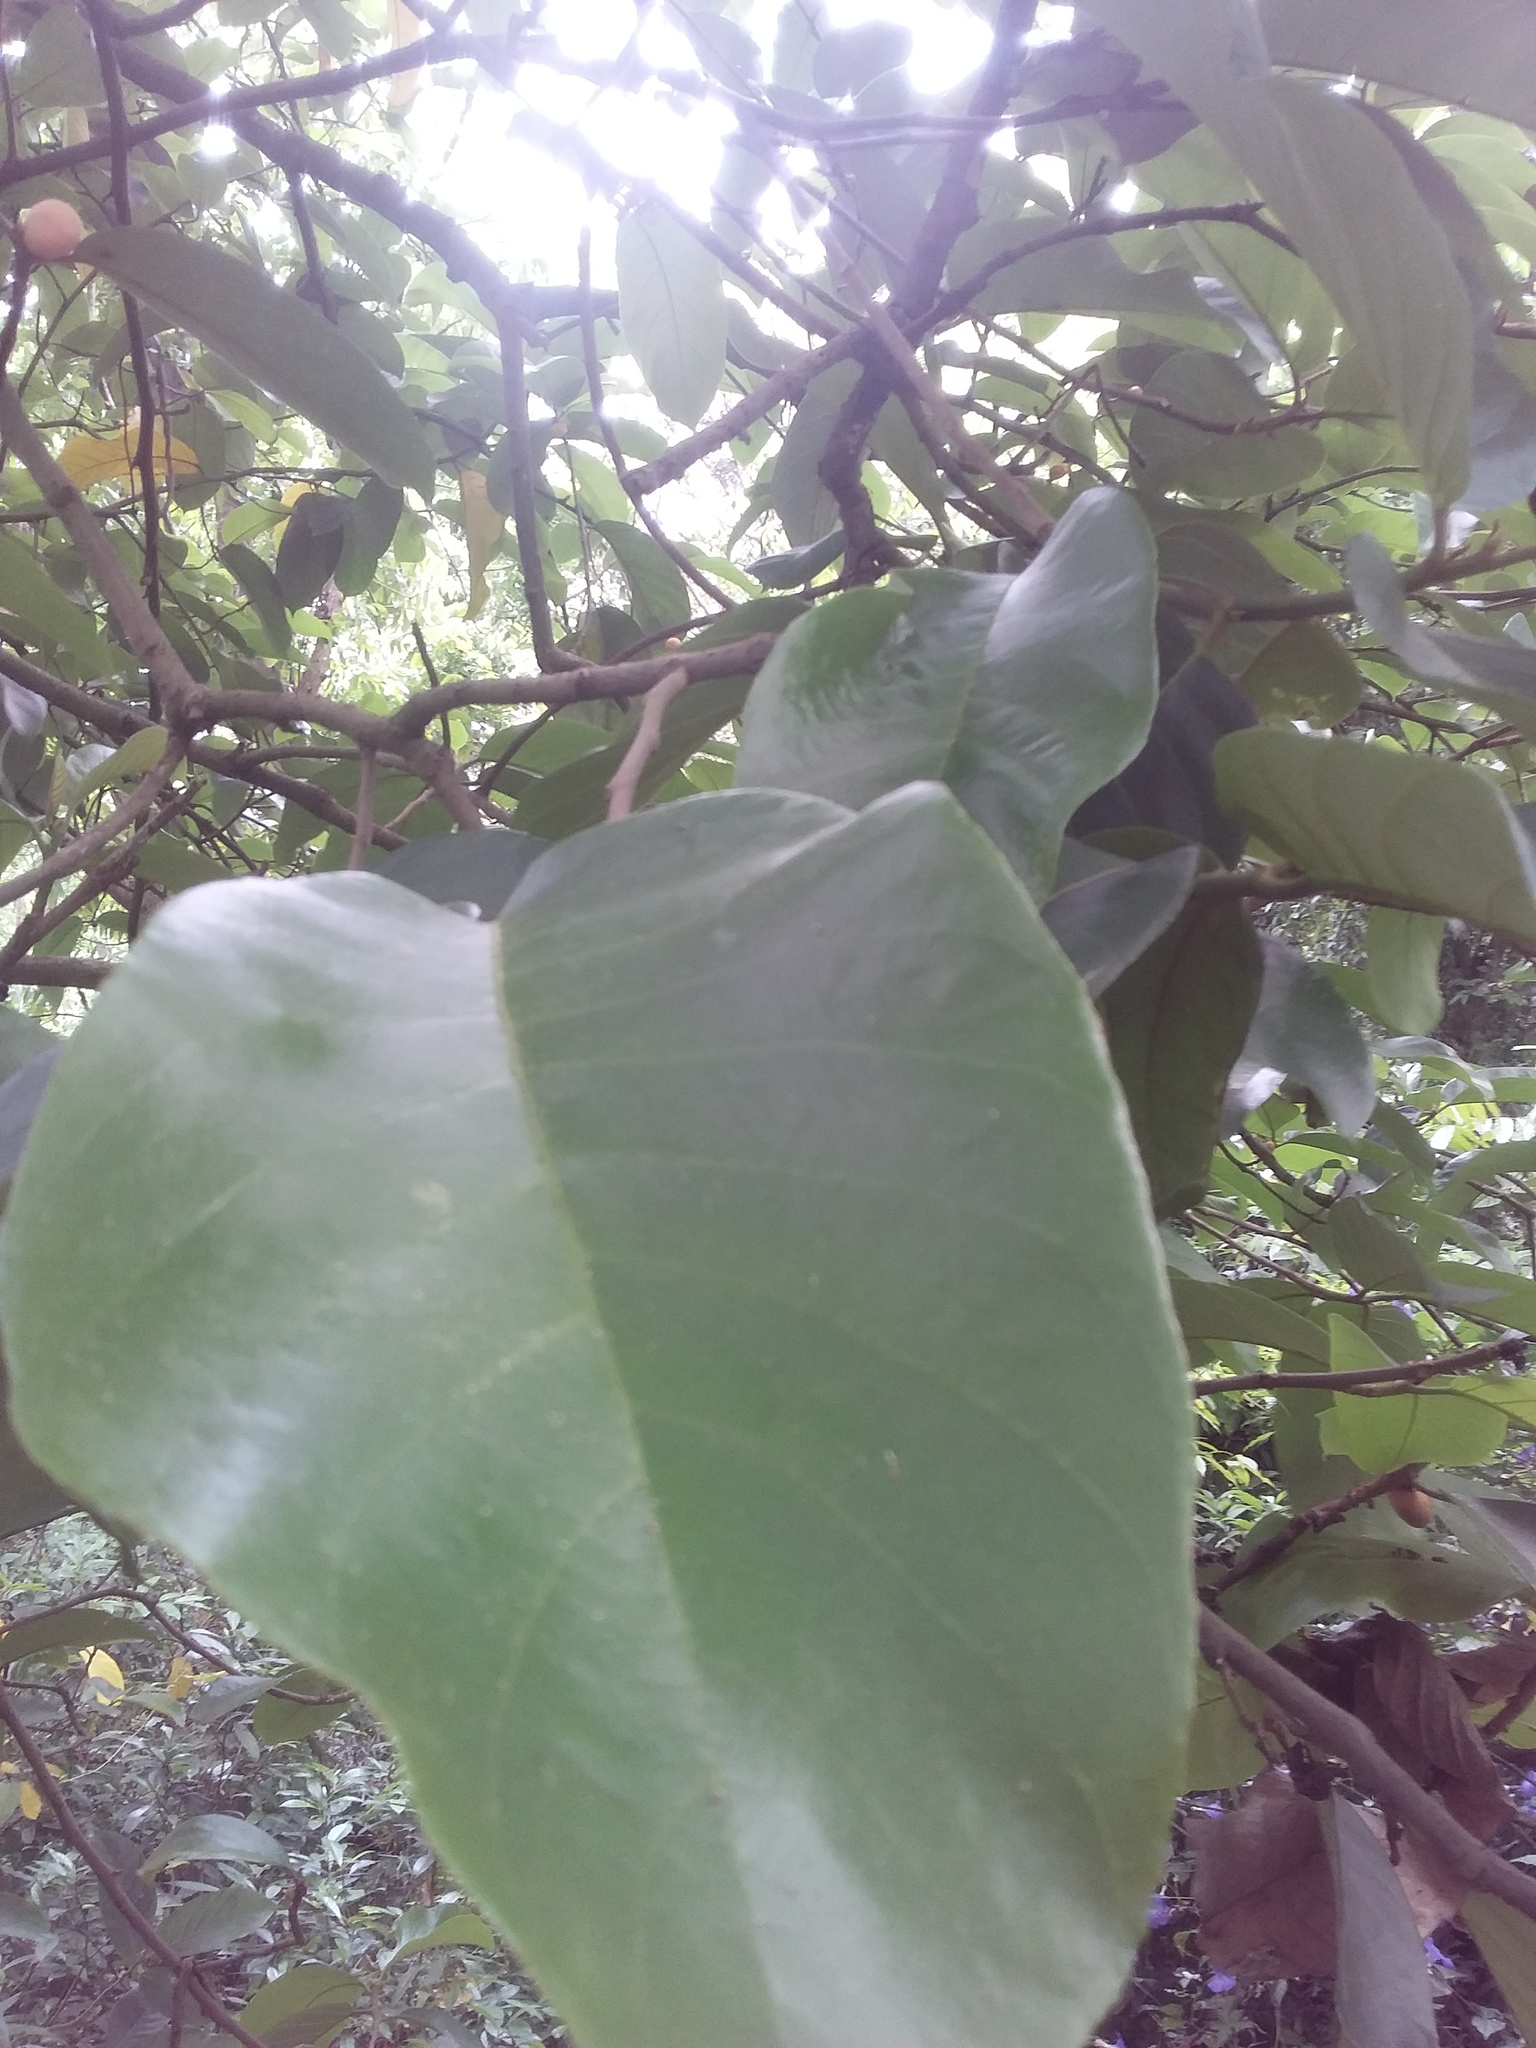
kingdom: Plantae
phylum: Tracheophyta
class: Magnoliopsida
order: Rosales
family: Moraceae
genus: Artocarpus
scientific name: Artocarpus lacucha
